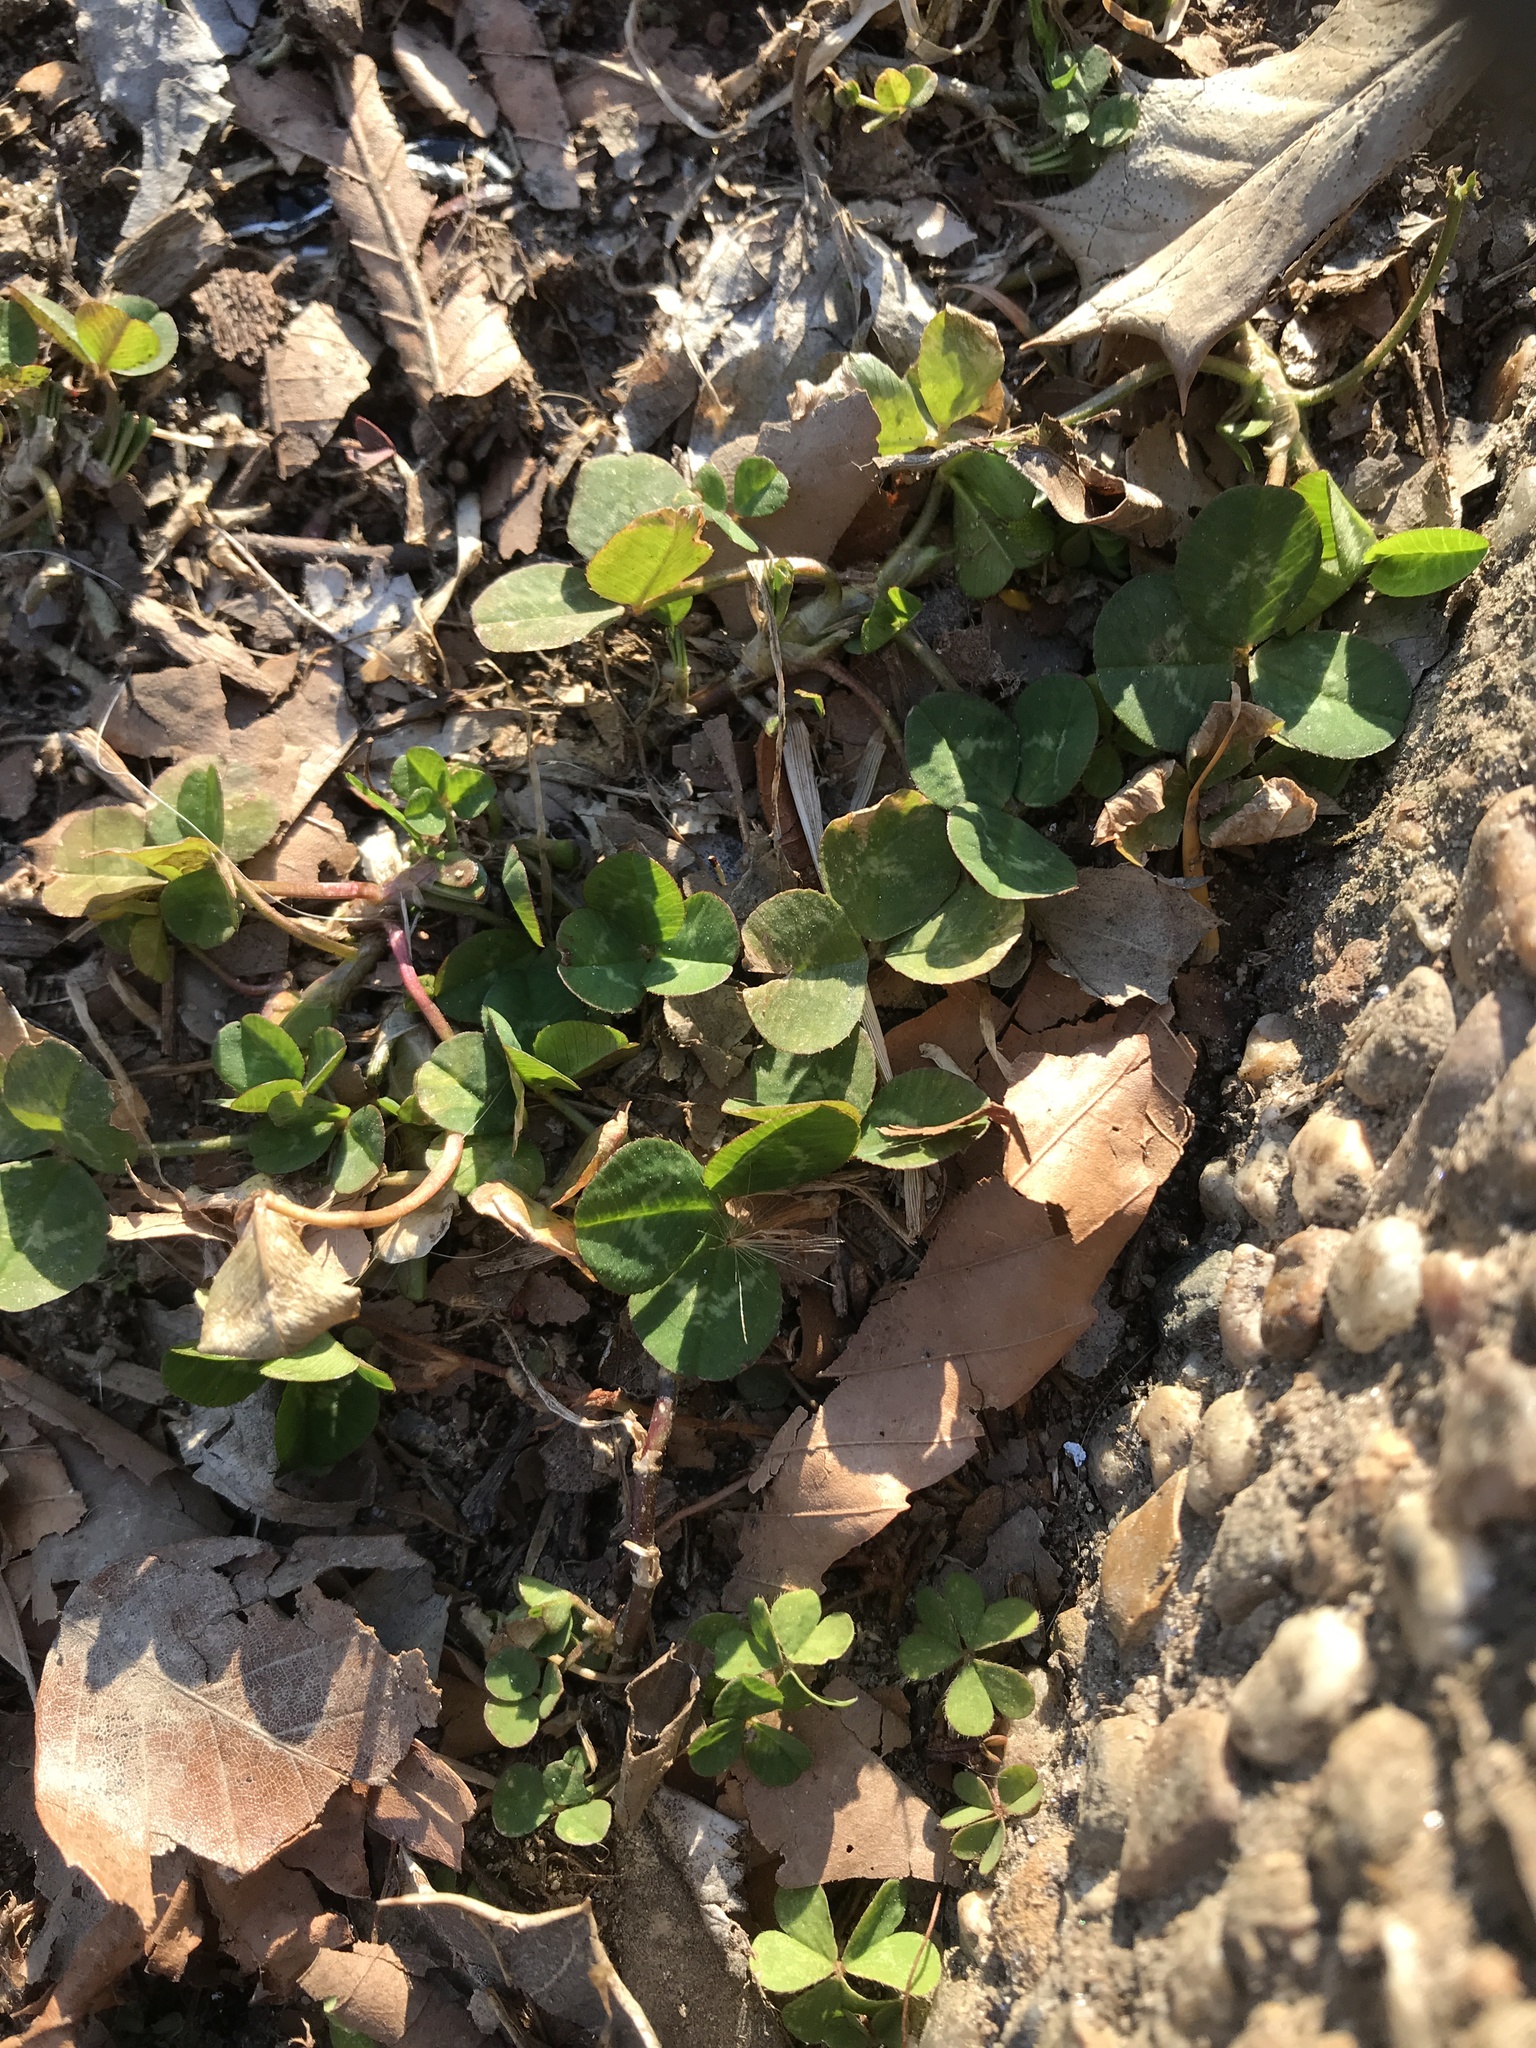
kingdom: Plantae
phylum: Tracheophyta
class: Magnoliopsida
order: Fabales
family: Fabaceae
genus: Trifolium
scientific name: Trifolium repens
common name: White clover
